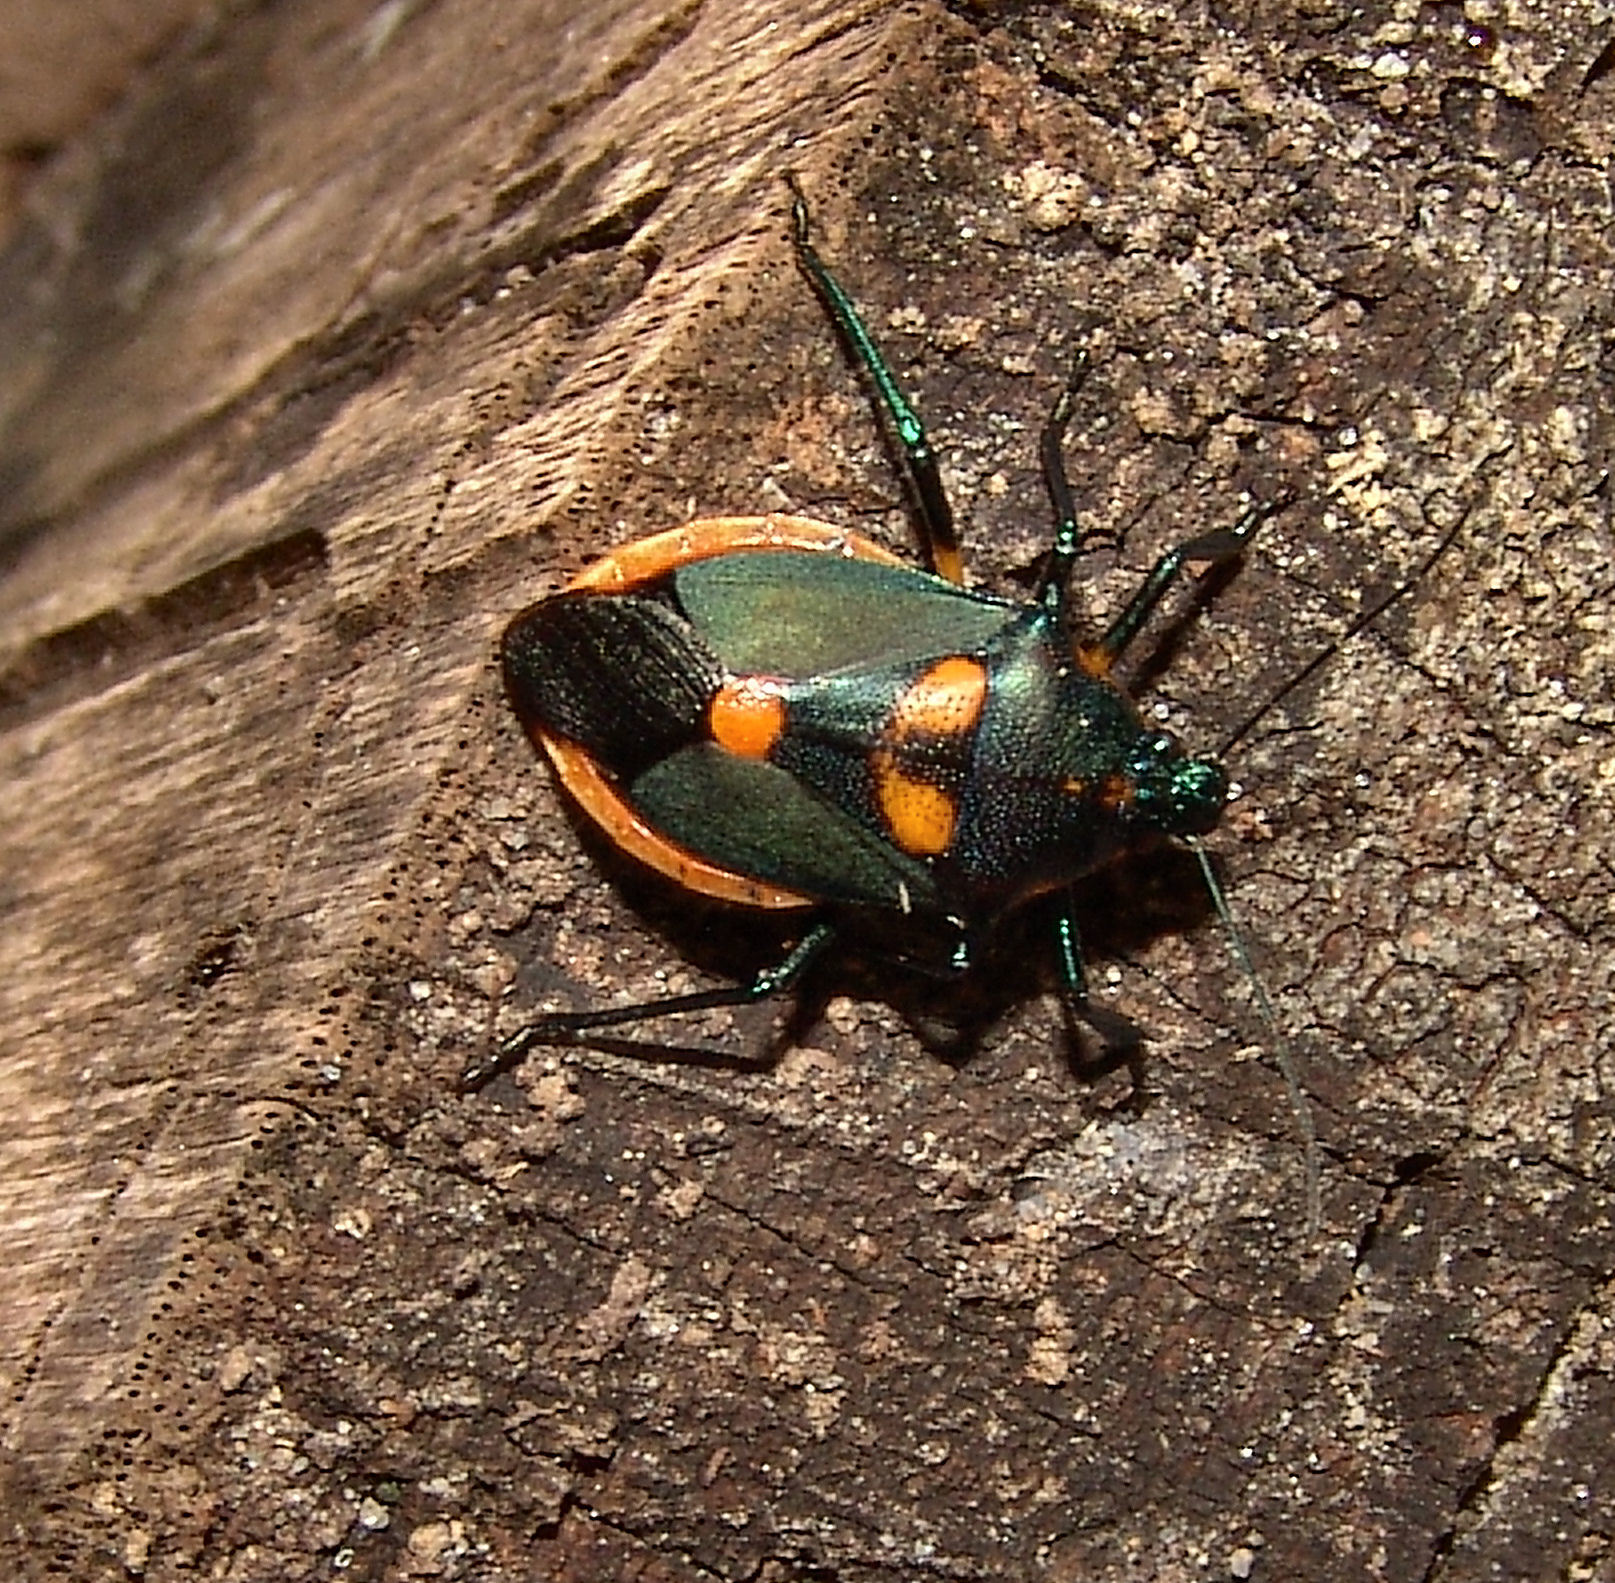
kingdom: Animalia
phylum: Arthropoda
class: Insecta
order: Hemiptera
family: Pentatomidae
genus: Euthyrhynchus
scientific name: Euthyrhynchus floridanus
